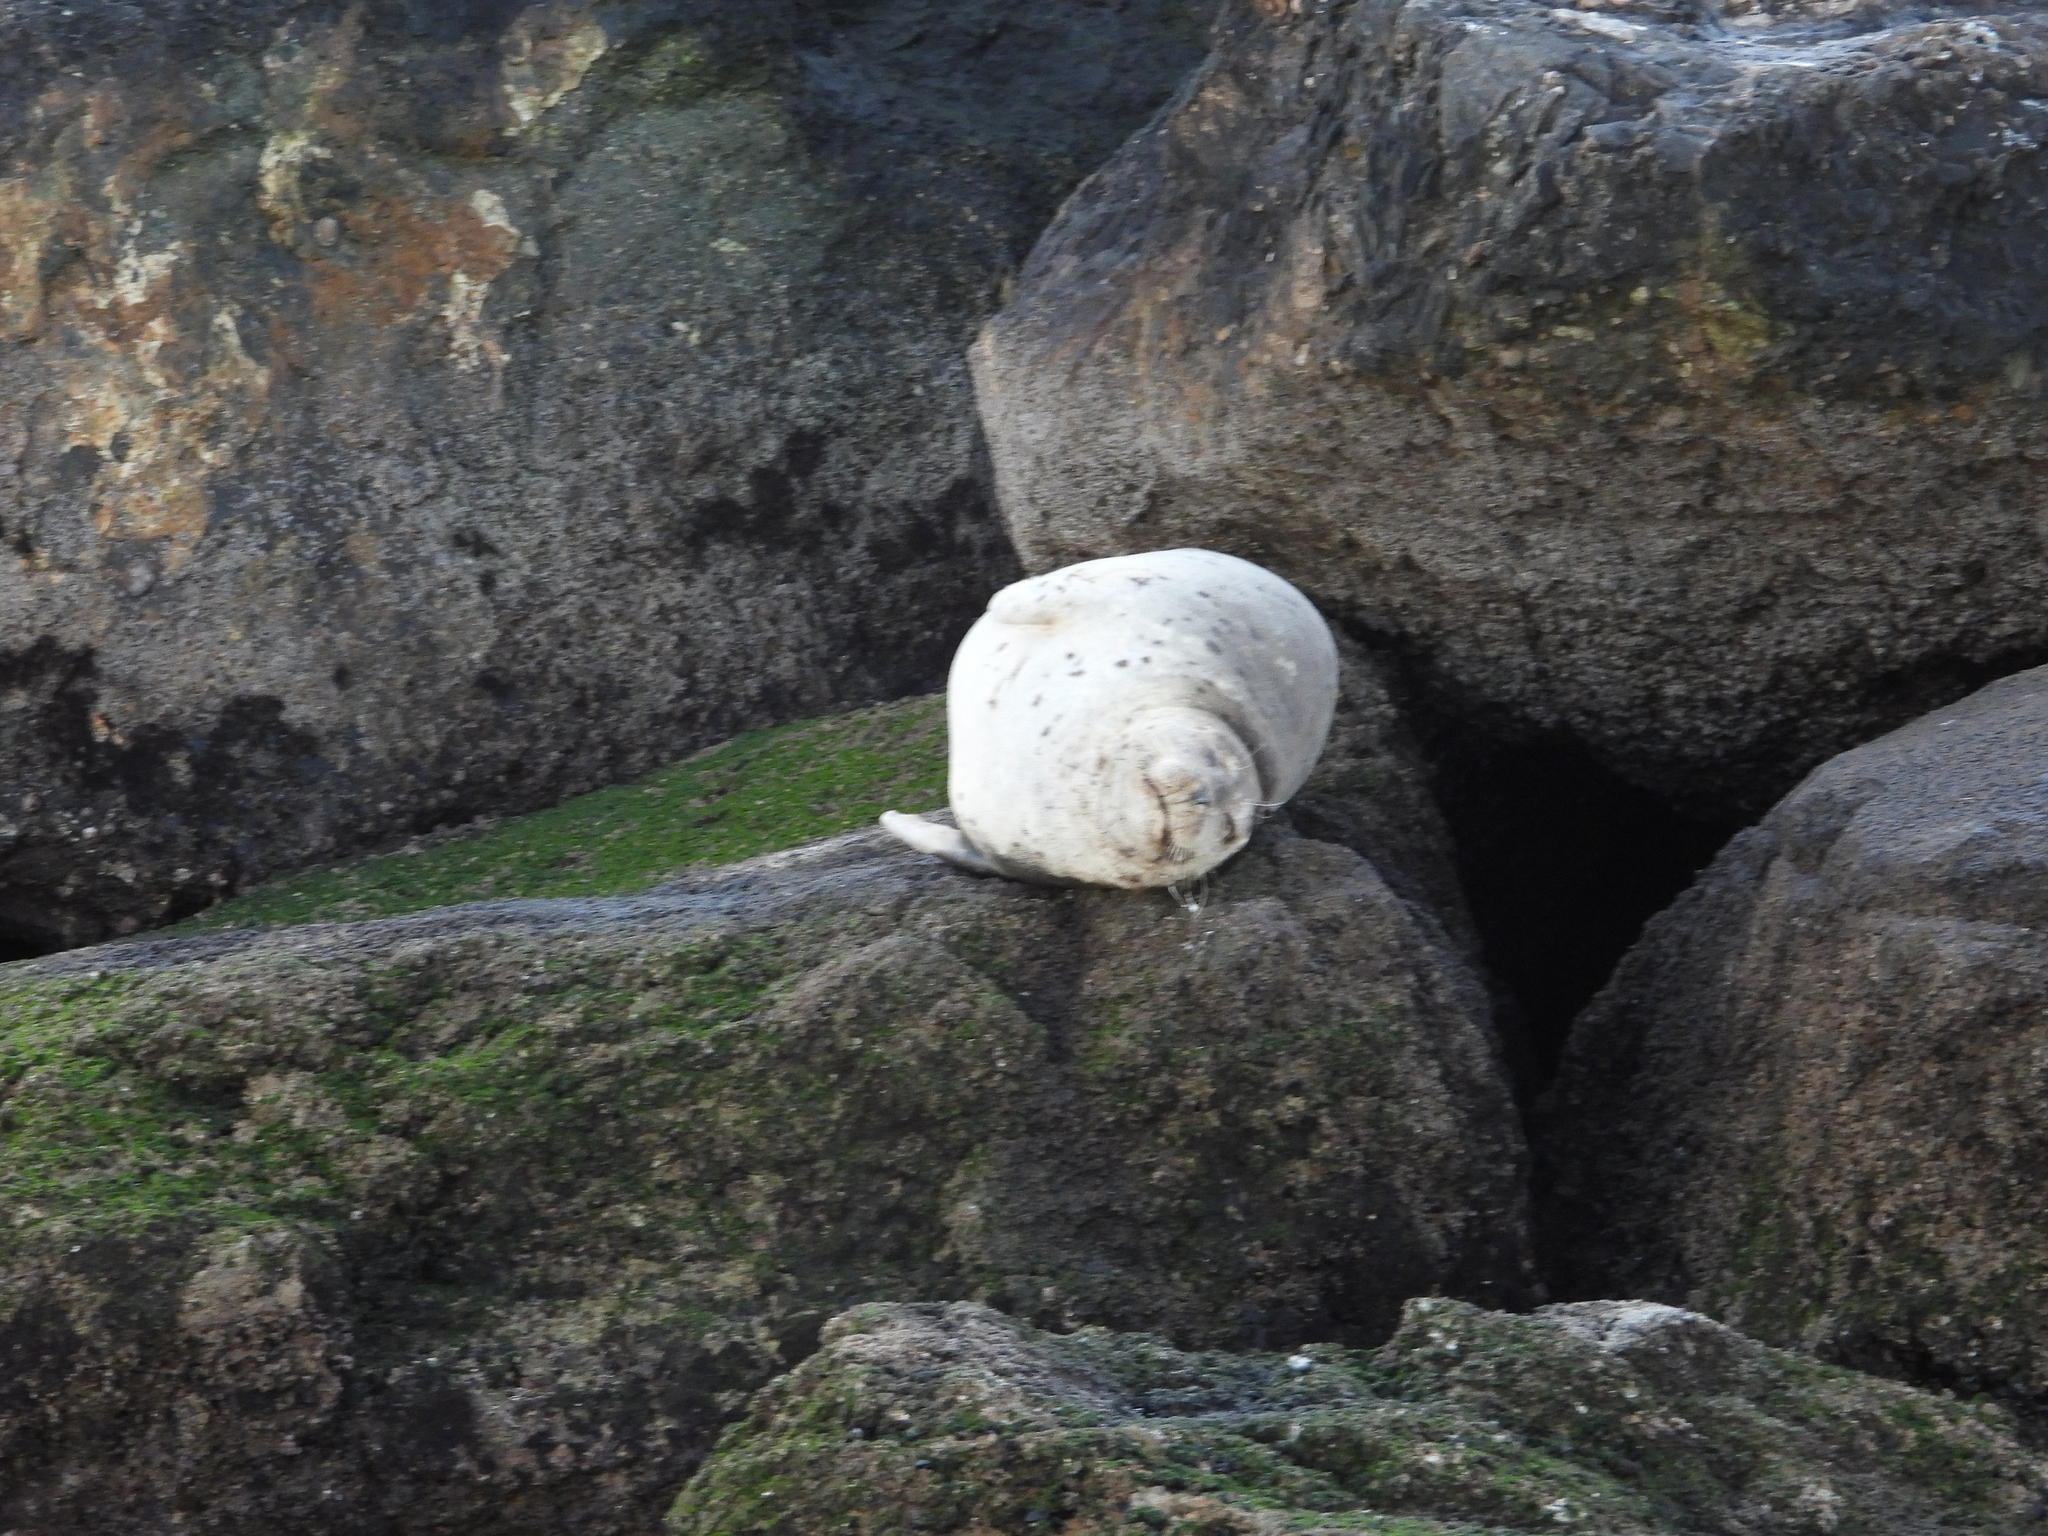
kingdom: Animalia
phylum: Chordata
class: Mammalia
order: Carnivora
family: Phocidae
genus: Phoca
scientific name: Phoca vitulina
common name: Harbor seal
